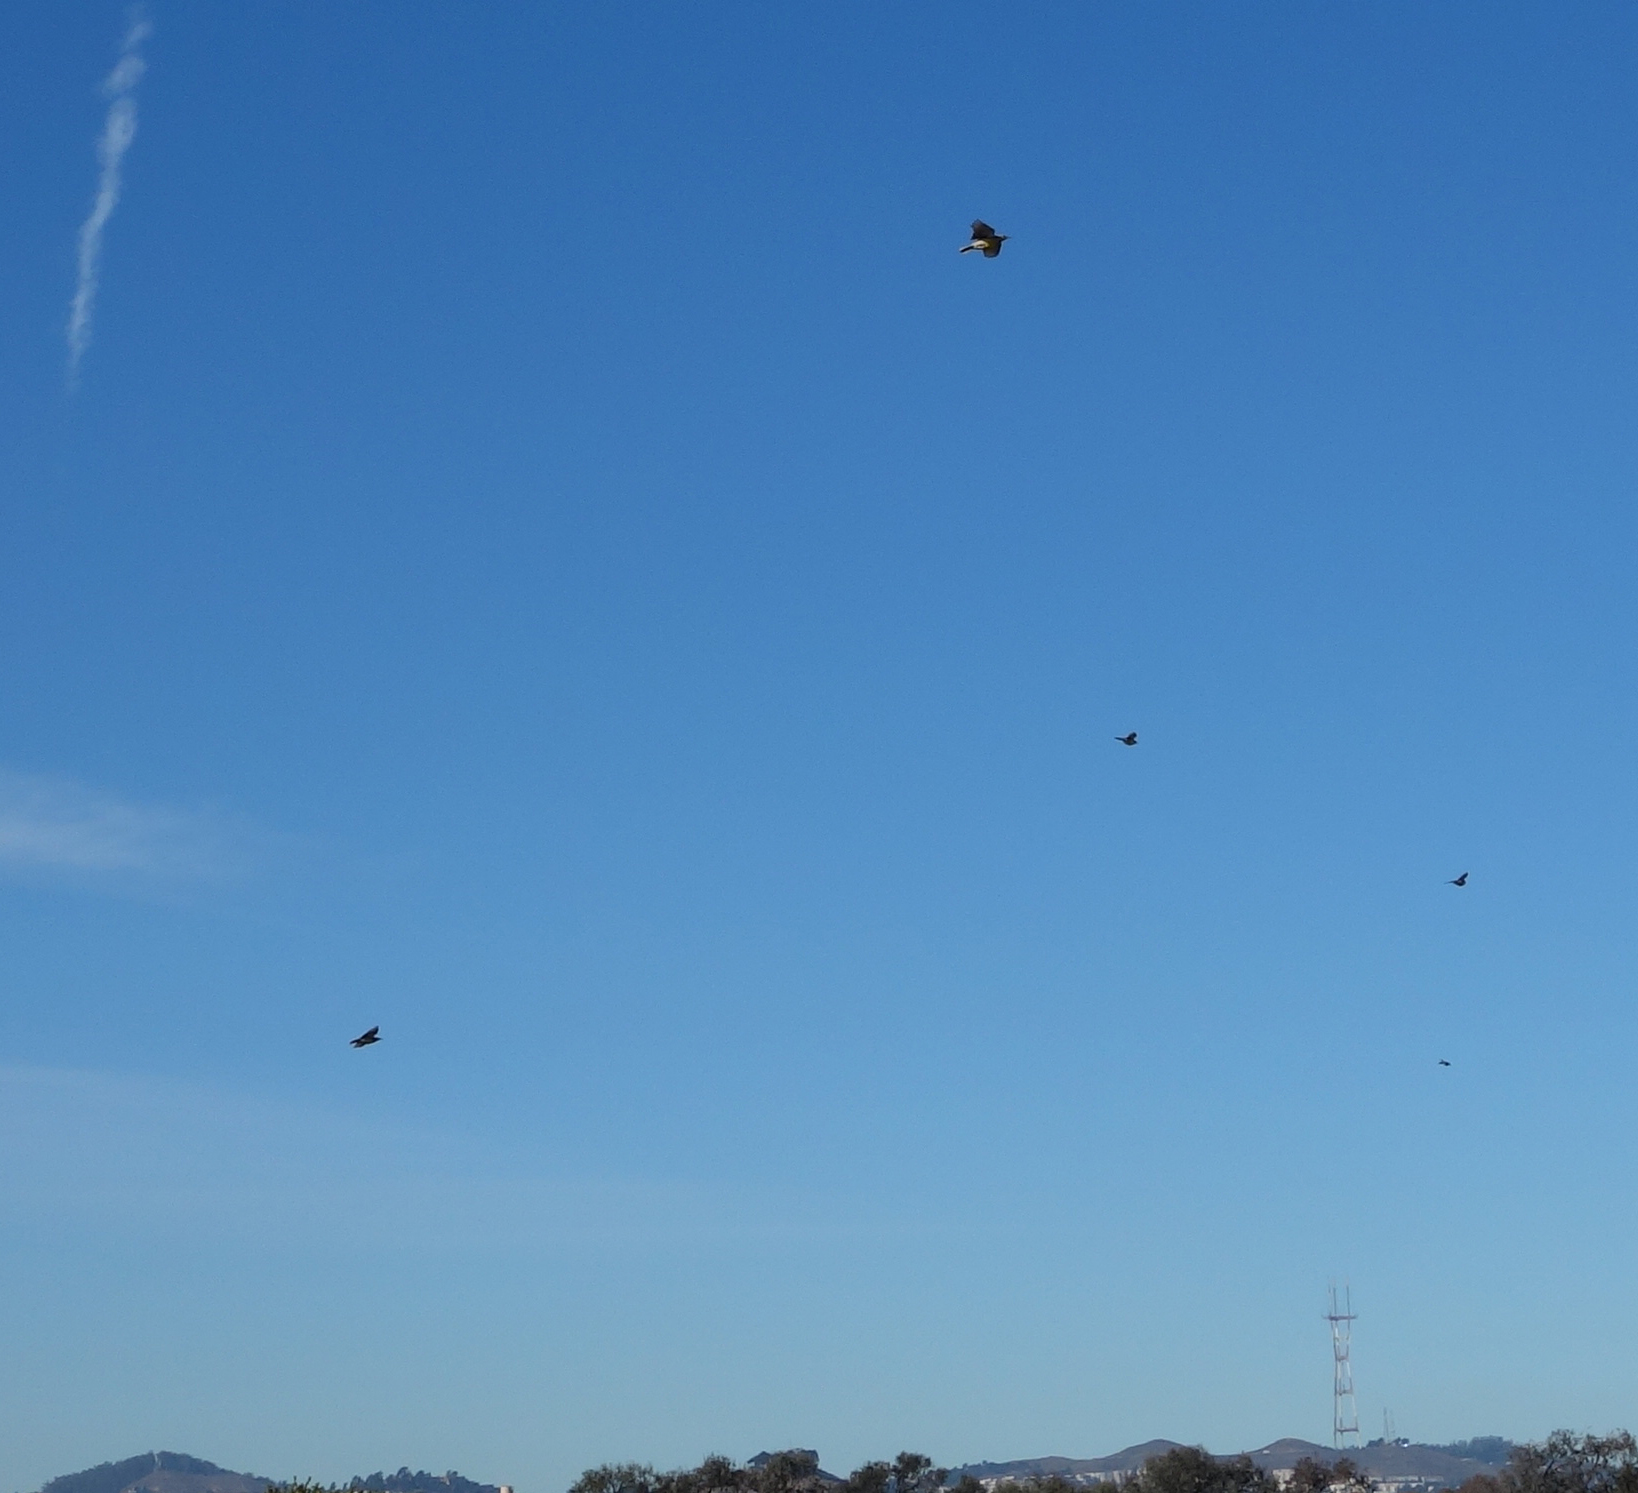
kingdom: Animalia
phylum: Chordata
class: Aves
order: Passeriformes
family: Icteridae
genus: Sturnella
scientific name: Sturnella neglecta
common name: Western meadowlark
